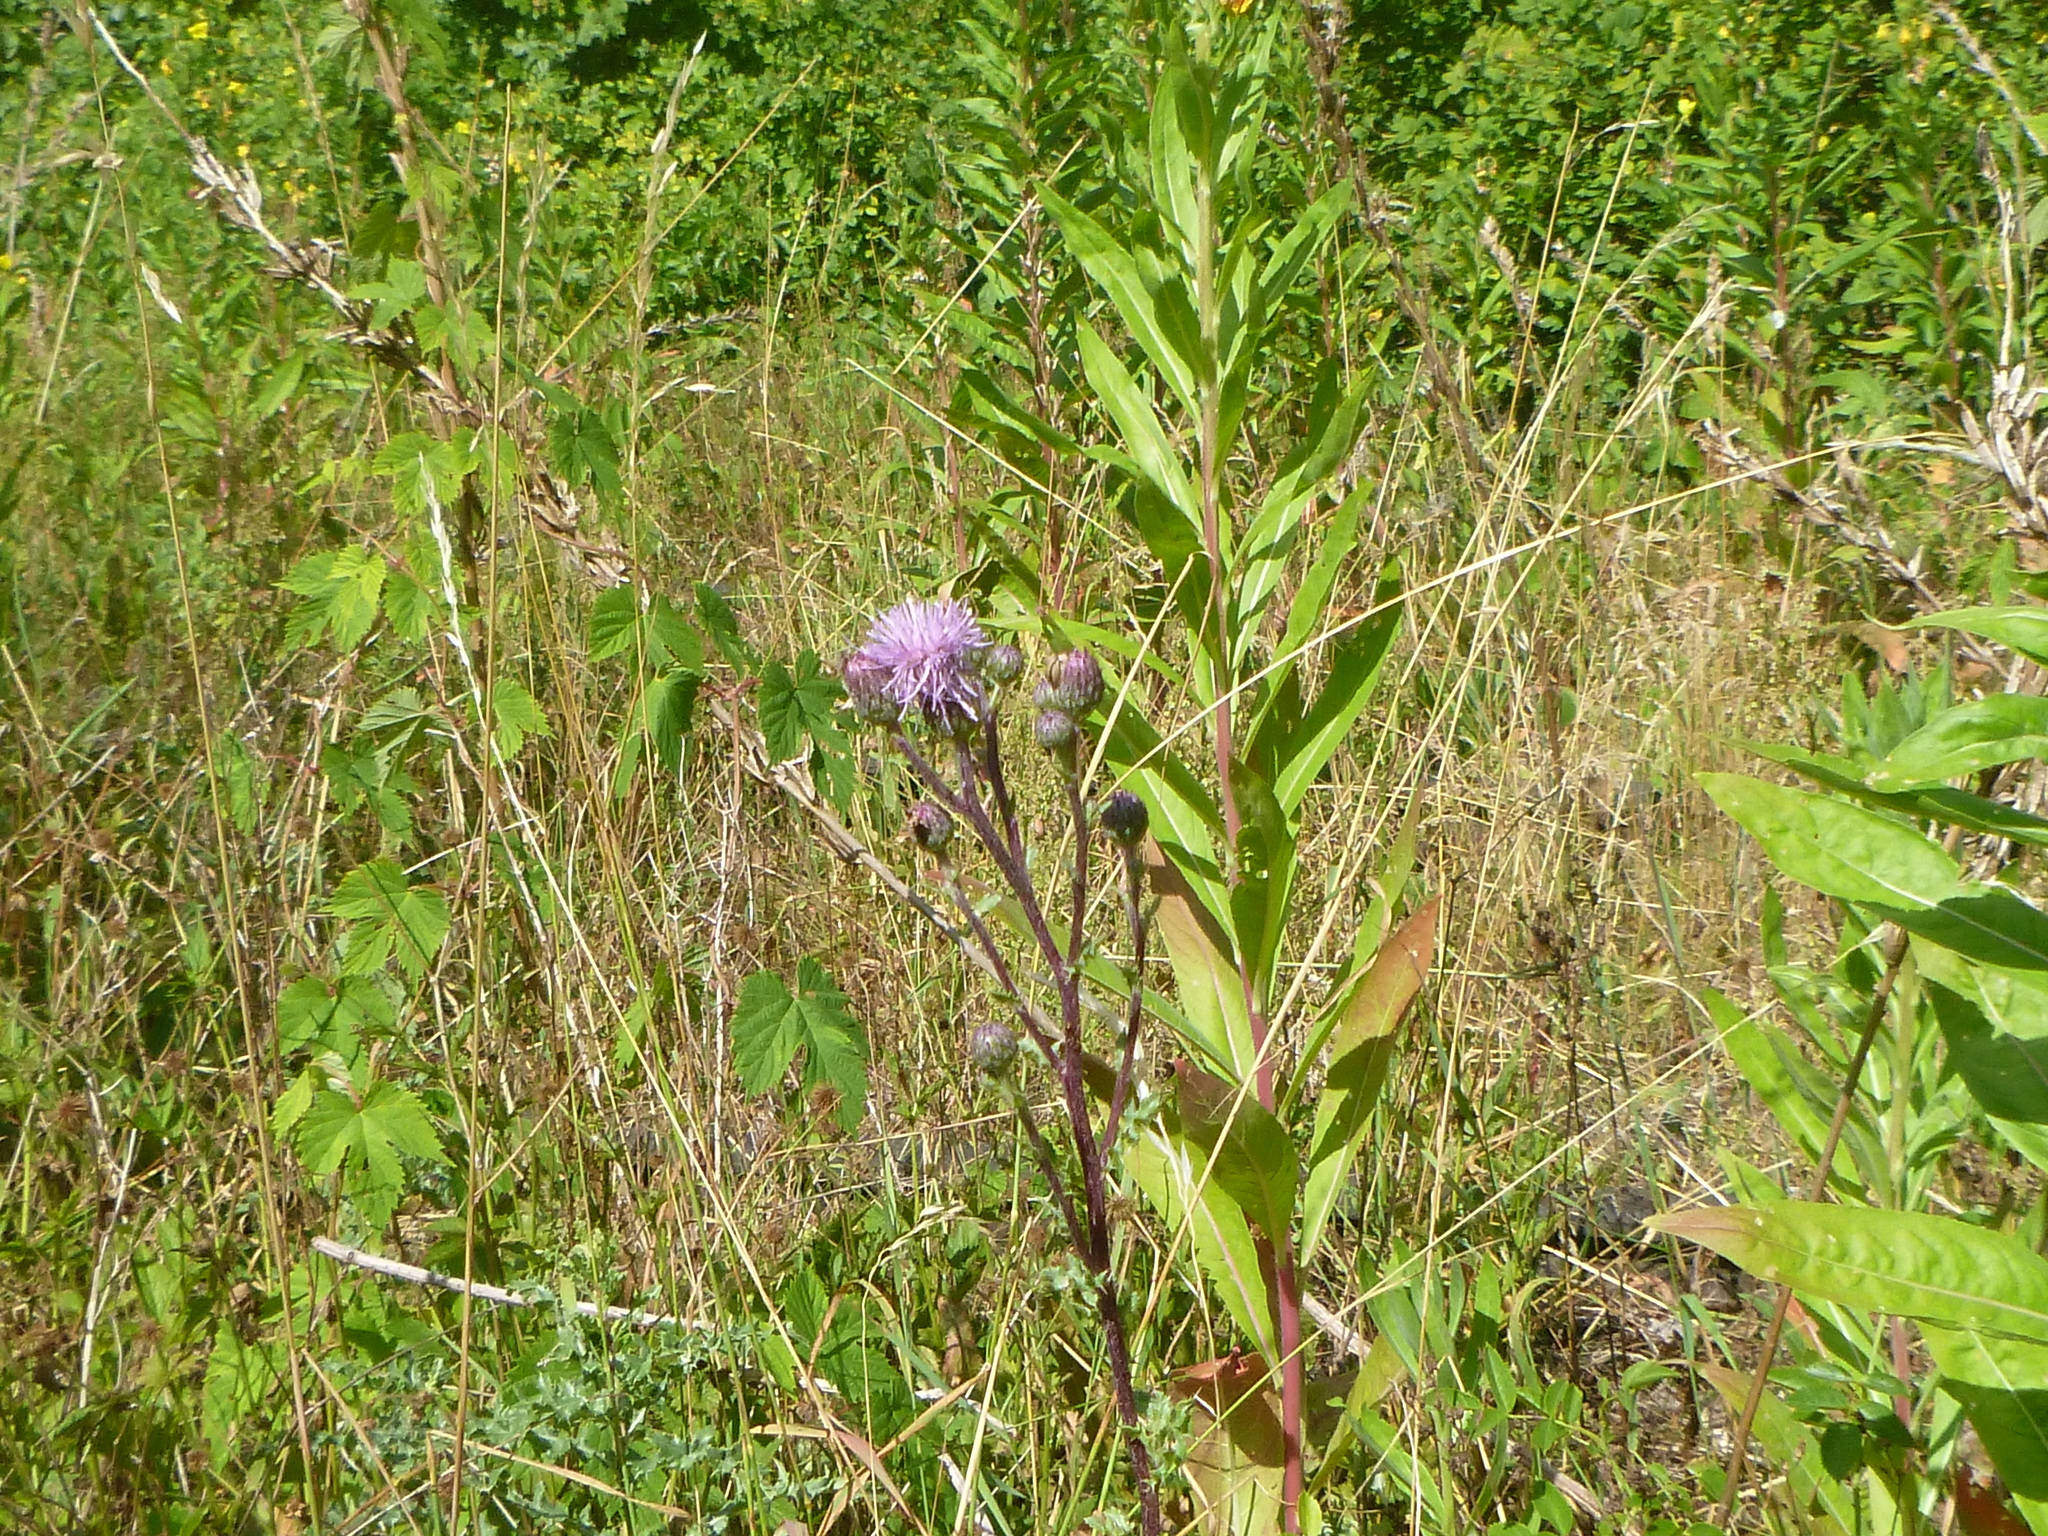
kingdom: Plantae
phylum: Tracheophyta
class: Magnoliopsida
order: Asterales
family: Asteraceae
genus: Cirsium
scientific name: Cirsium arvense
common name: Creeping thistle
